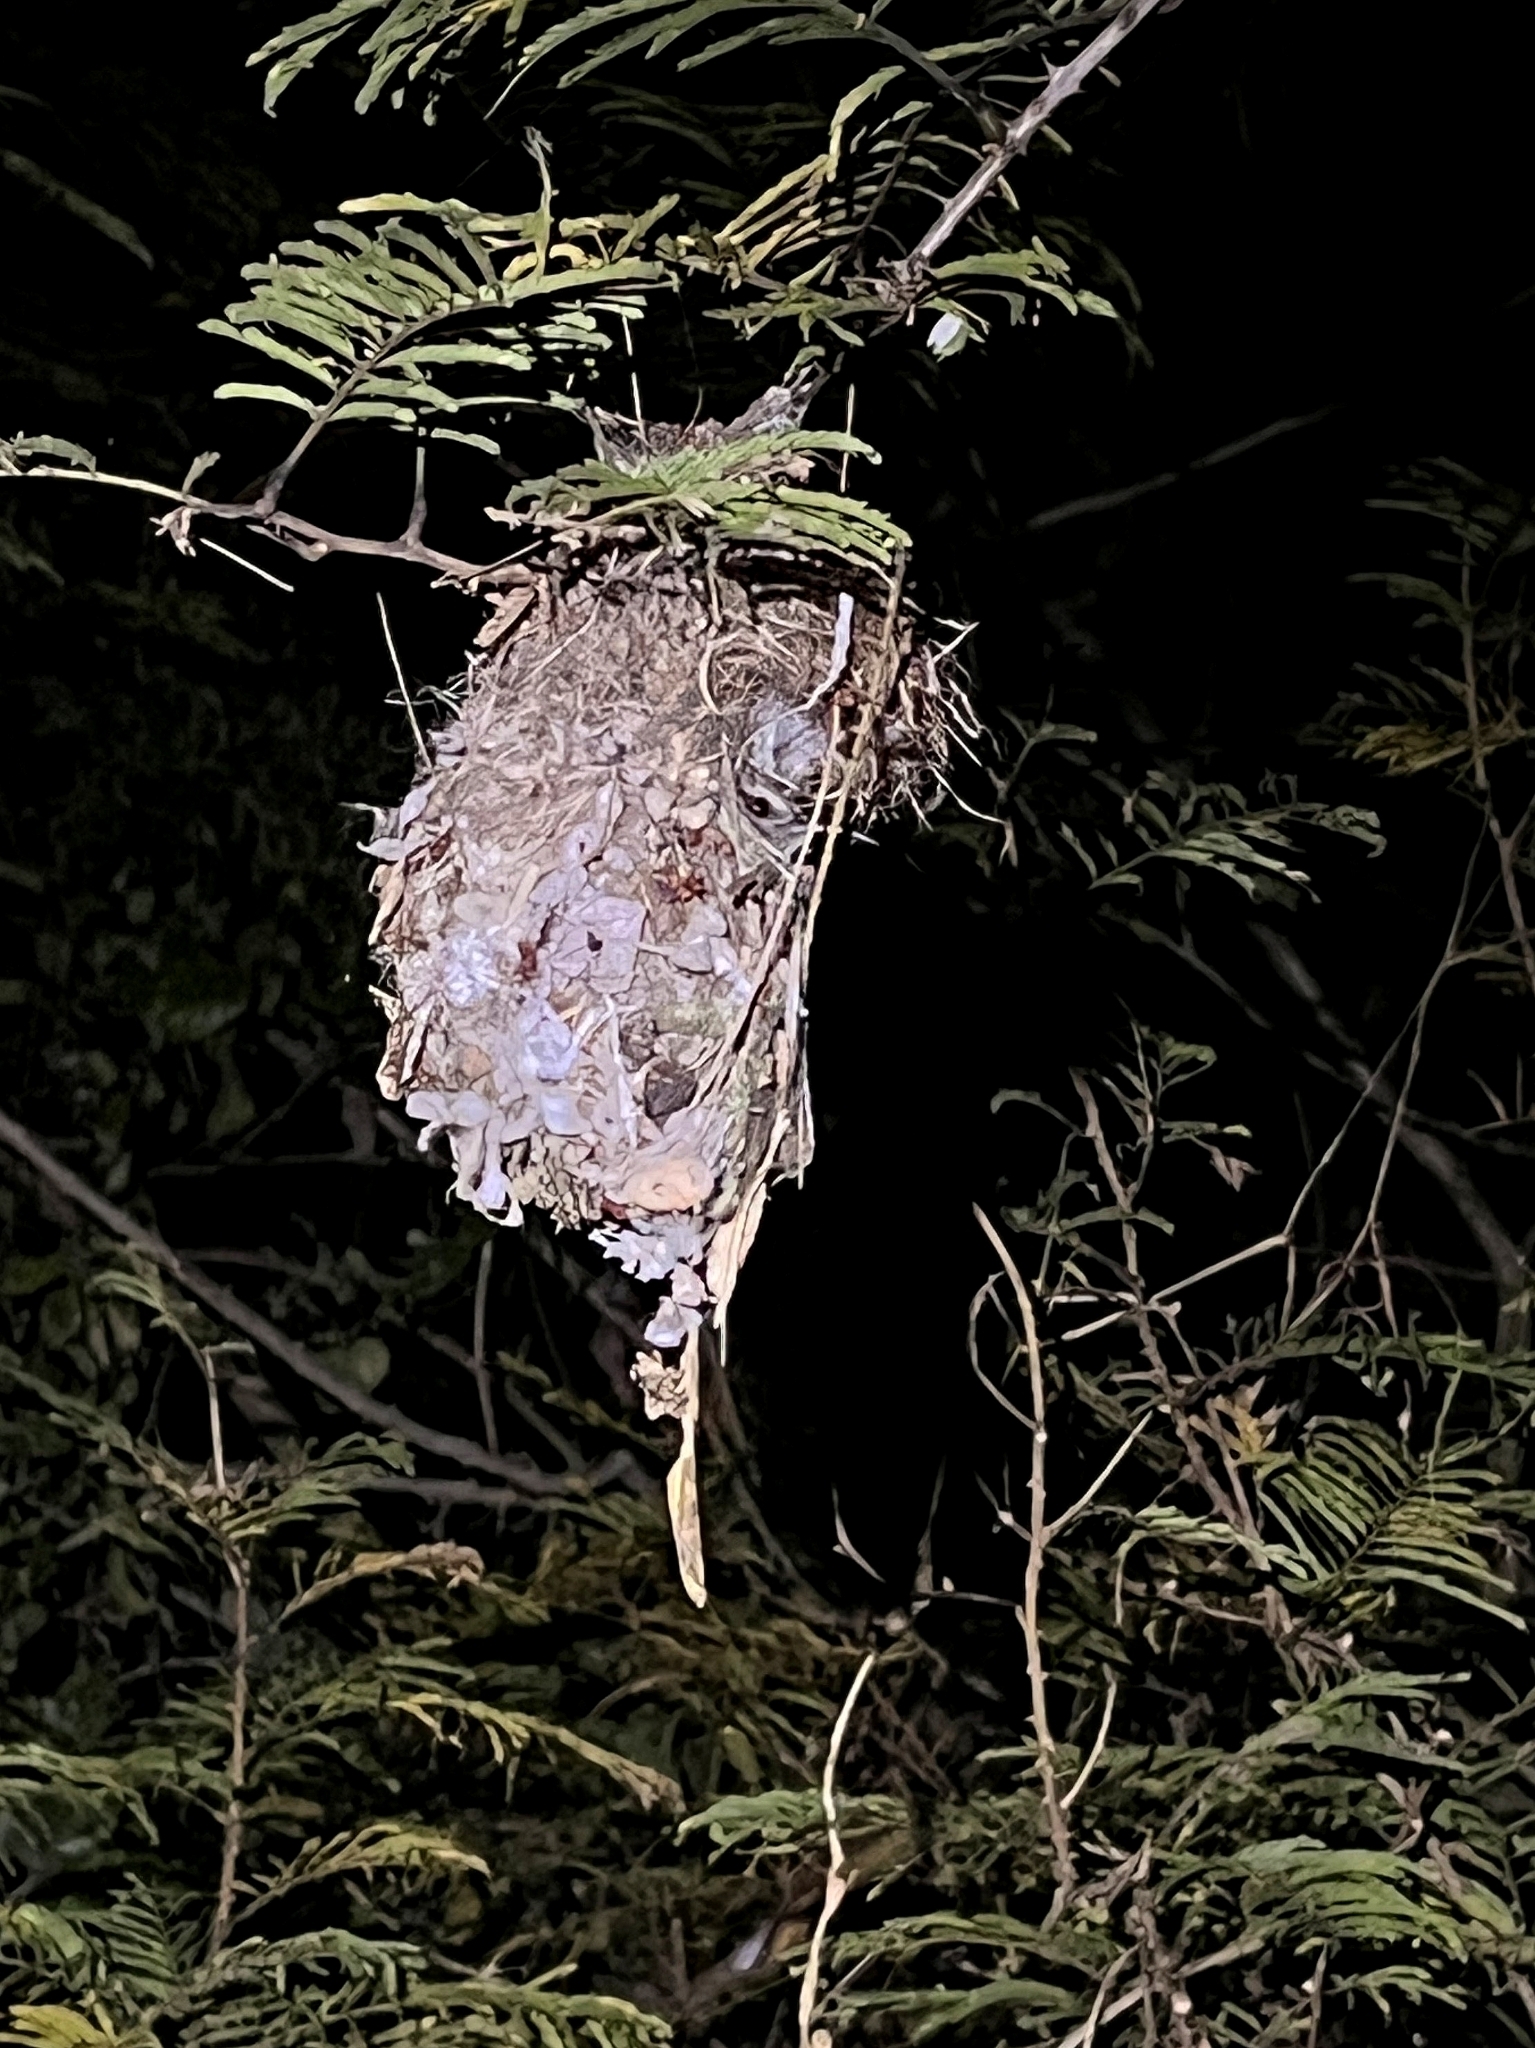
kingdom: Animalia
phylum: Chordata
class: Aves
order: Passeriformes
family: Nectariniidae
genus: Leptocoma
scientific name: Leptocoma zeylonica
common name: Purple-rumped sunbird
